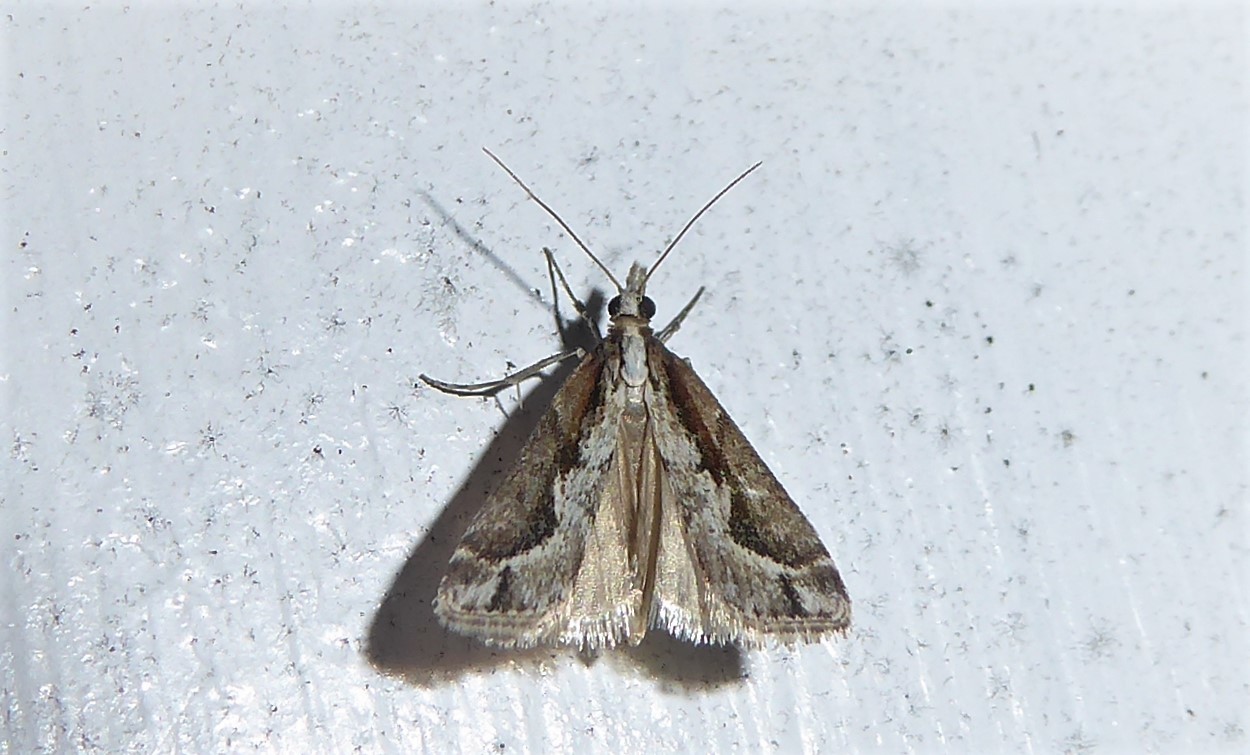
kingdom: Animalia
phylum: Arthropoda
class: Insecta
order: Lepidoptera
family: Crambidae
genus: Eudonia
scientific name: Eudonia steropaea
